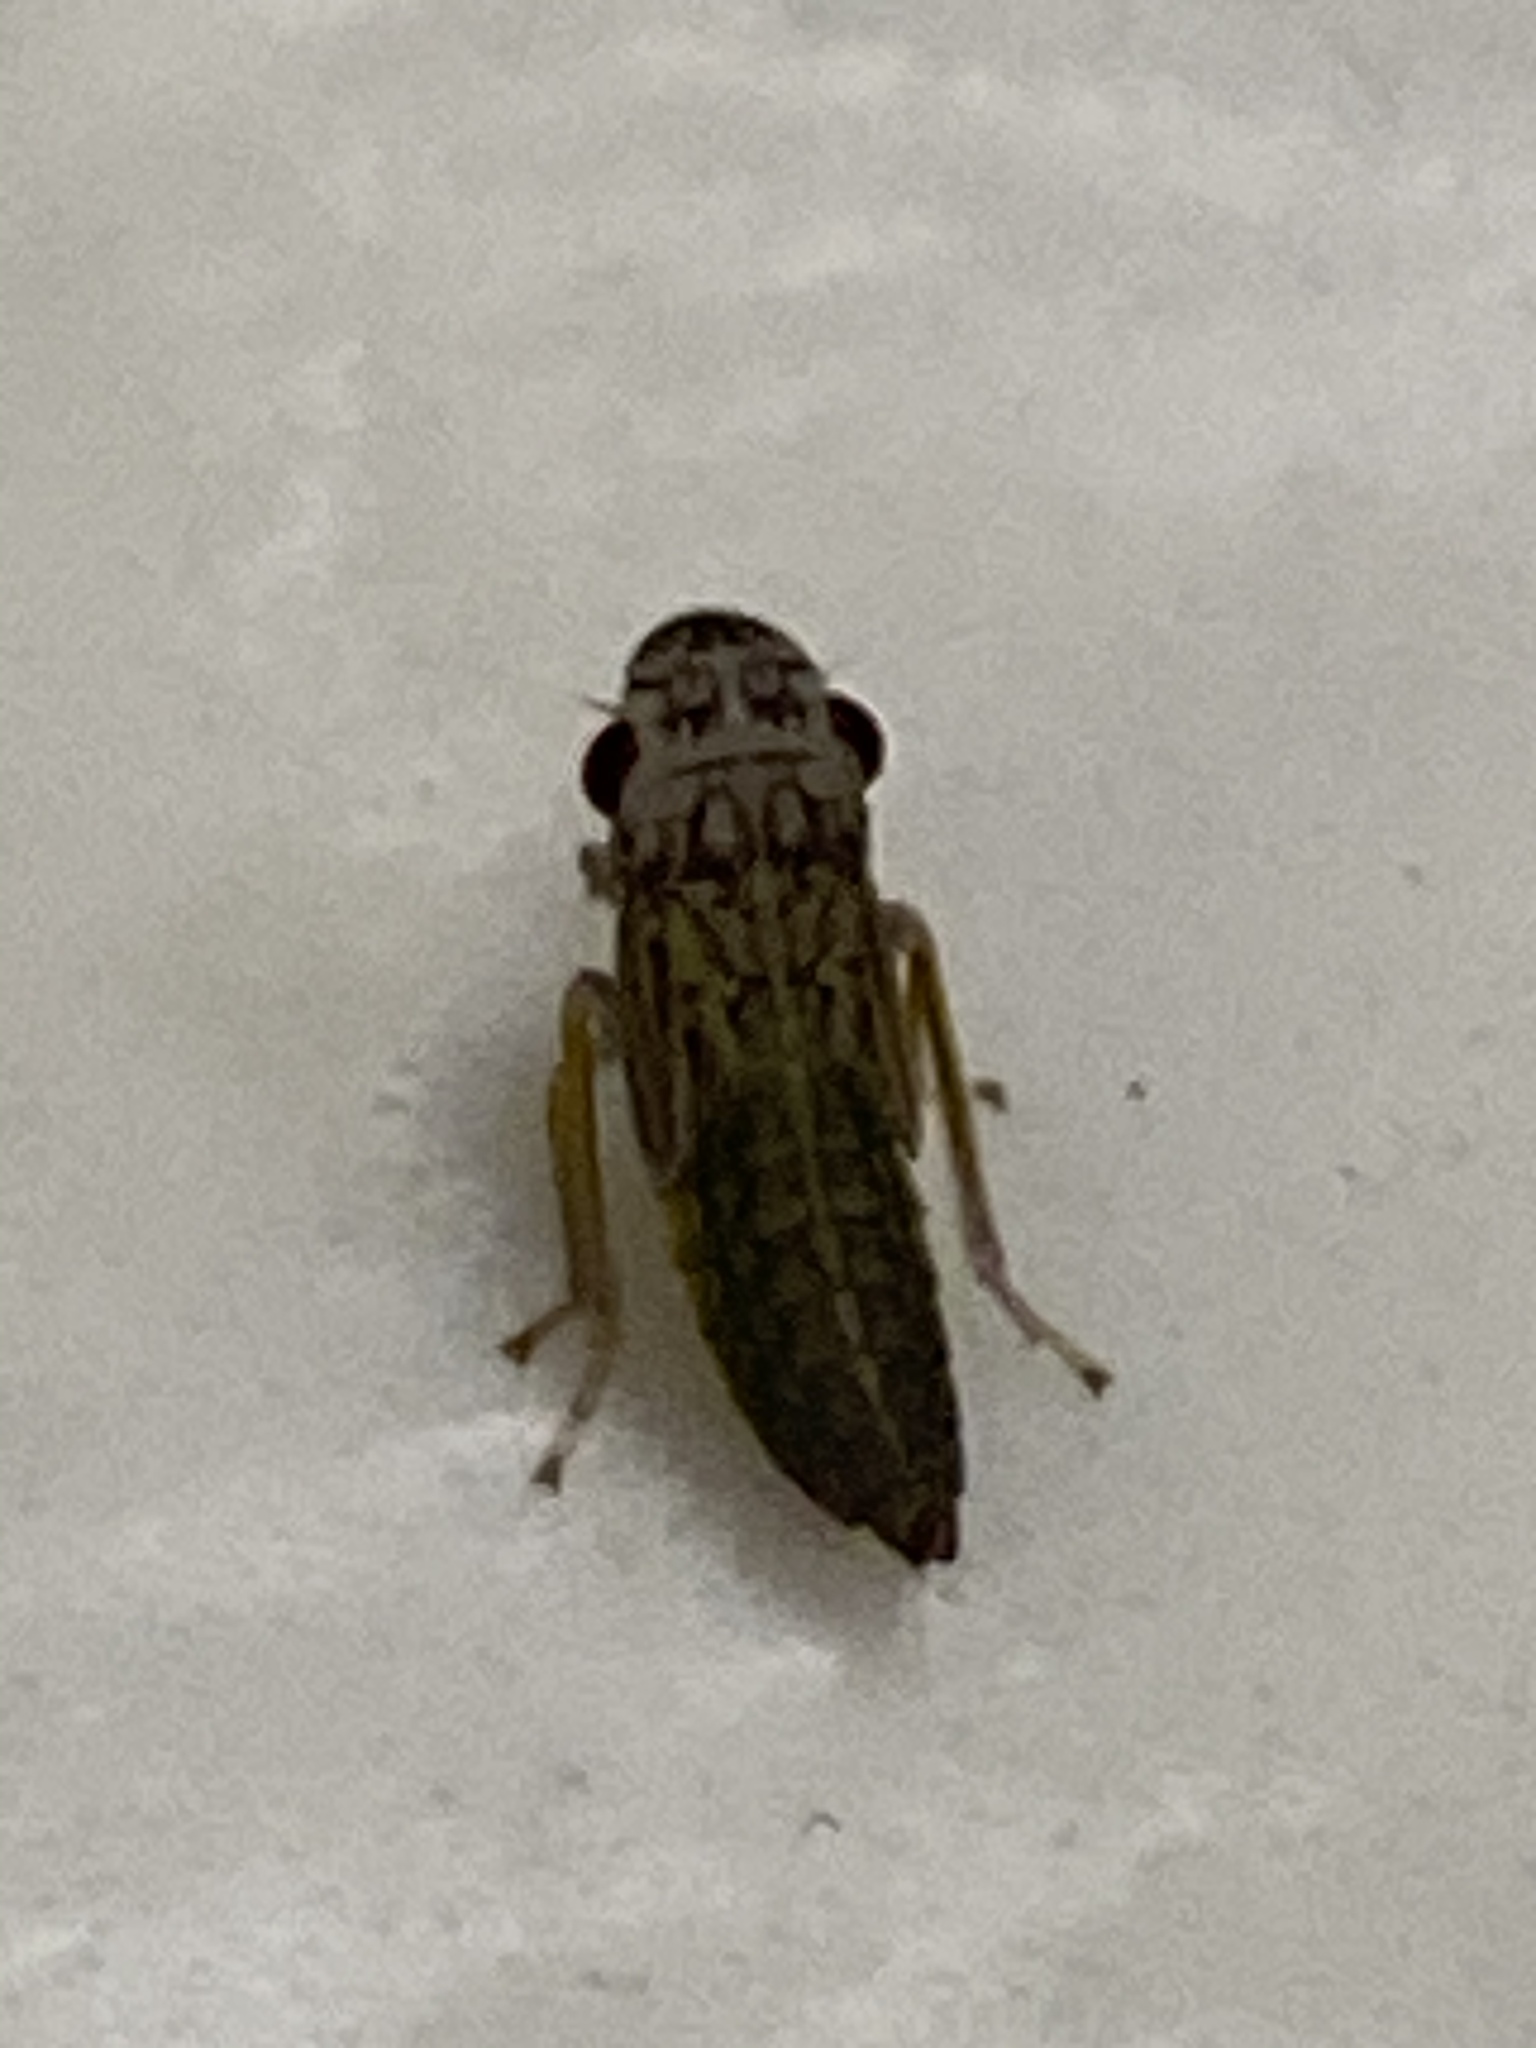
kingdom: Animalia
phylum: Arthropoda
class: Insecta
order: Hemiptera
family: Cicadellidae
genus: Oncometopia
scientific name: Oncometopia orbona
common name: Broad-headed sharpshooter
